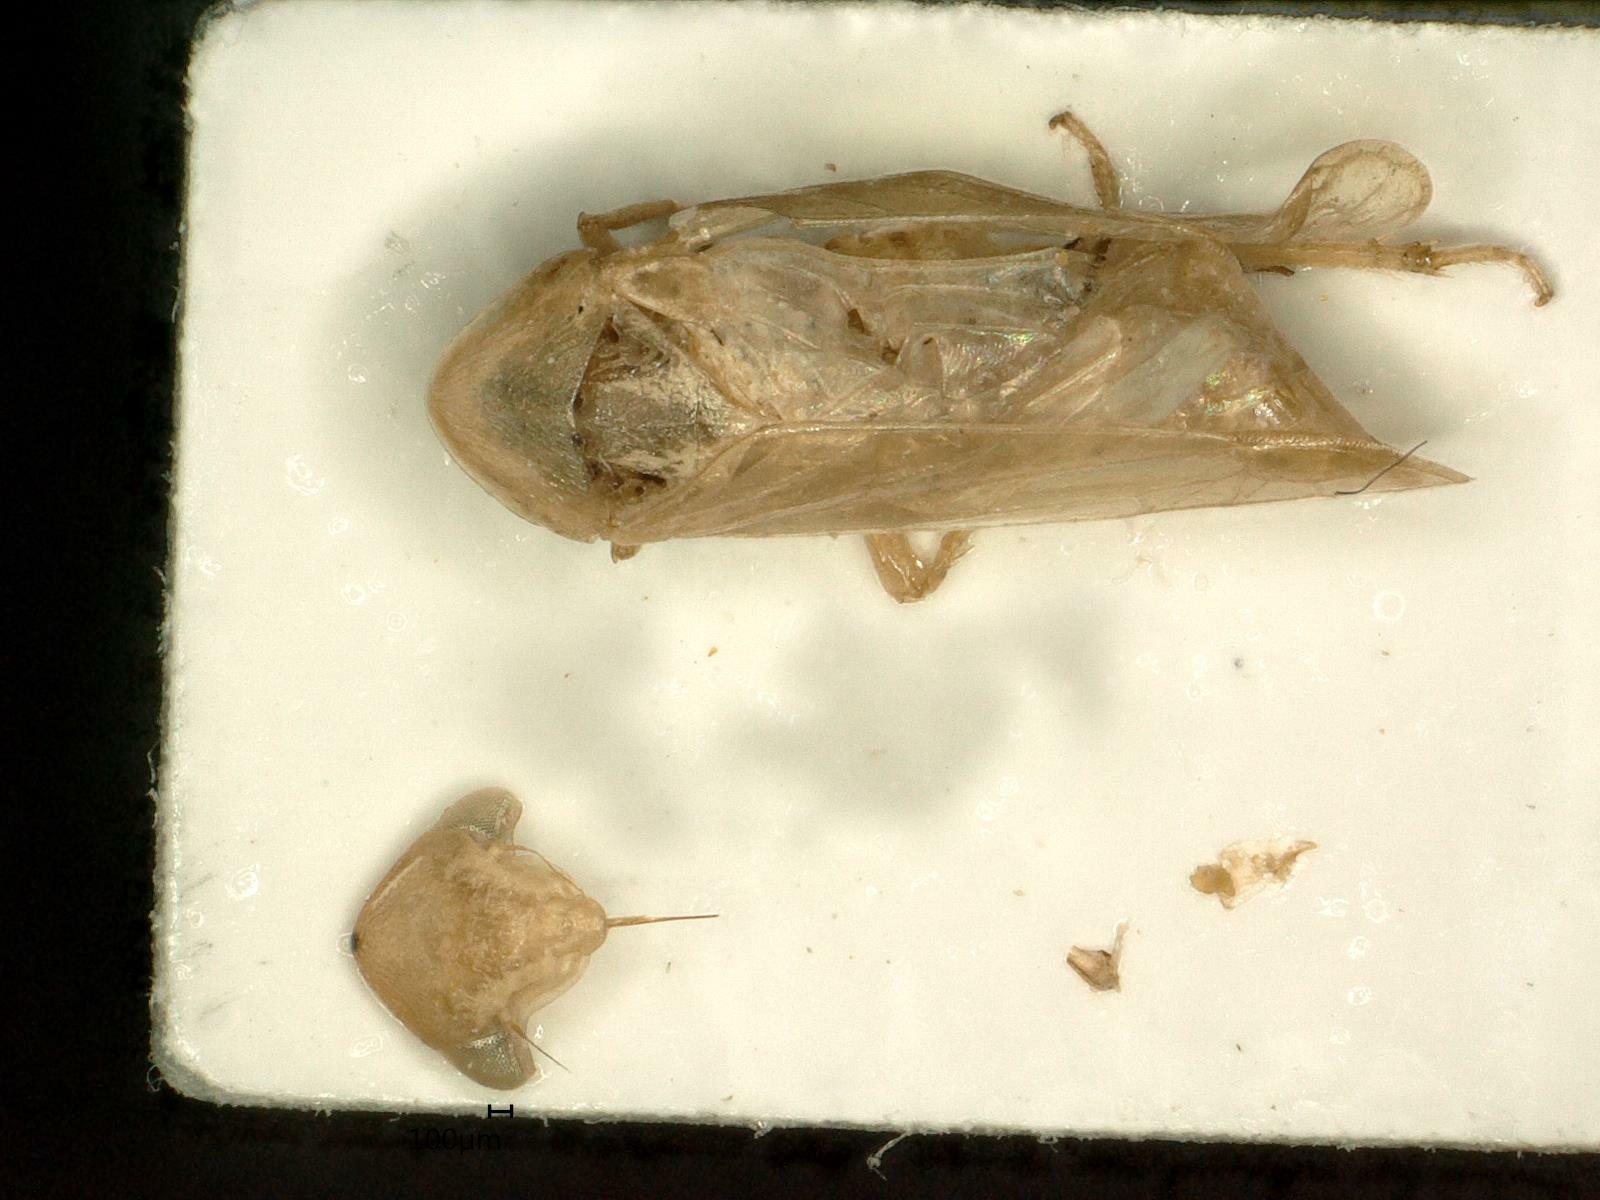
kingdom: Animalia
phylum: Arthropoda
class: Insecta
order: Hemiptera
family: Cicadellidae
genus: Macropsis
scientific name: Macropsis ocellata
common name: Leafhopper
